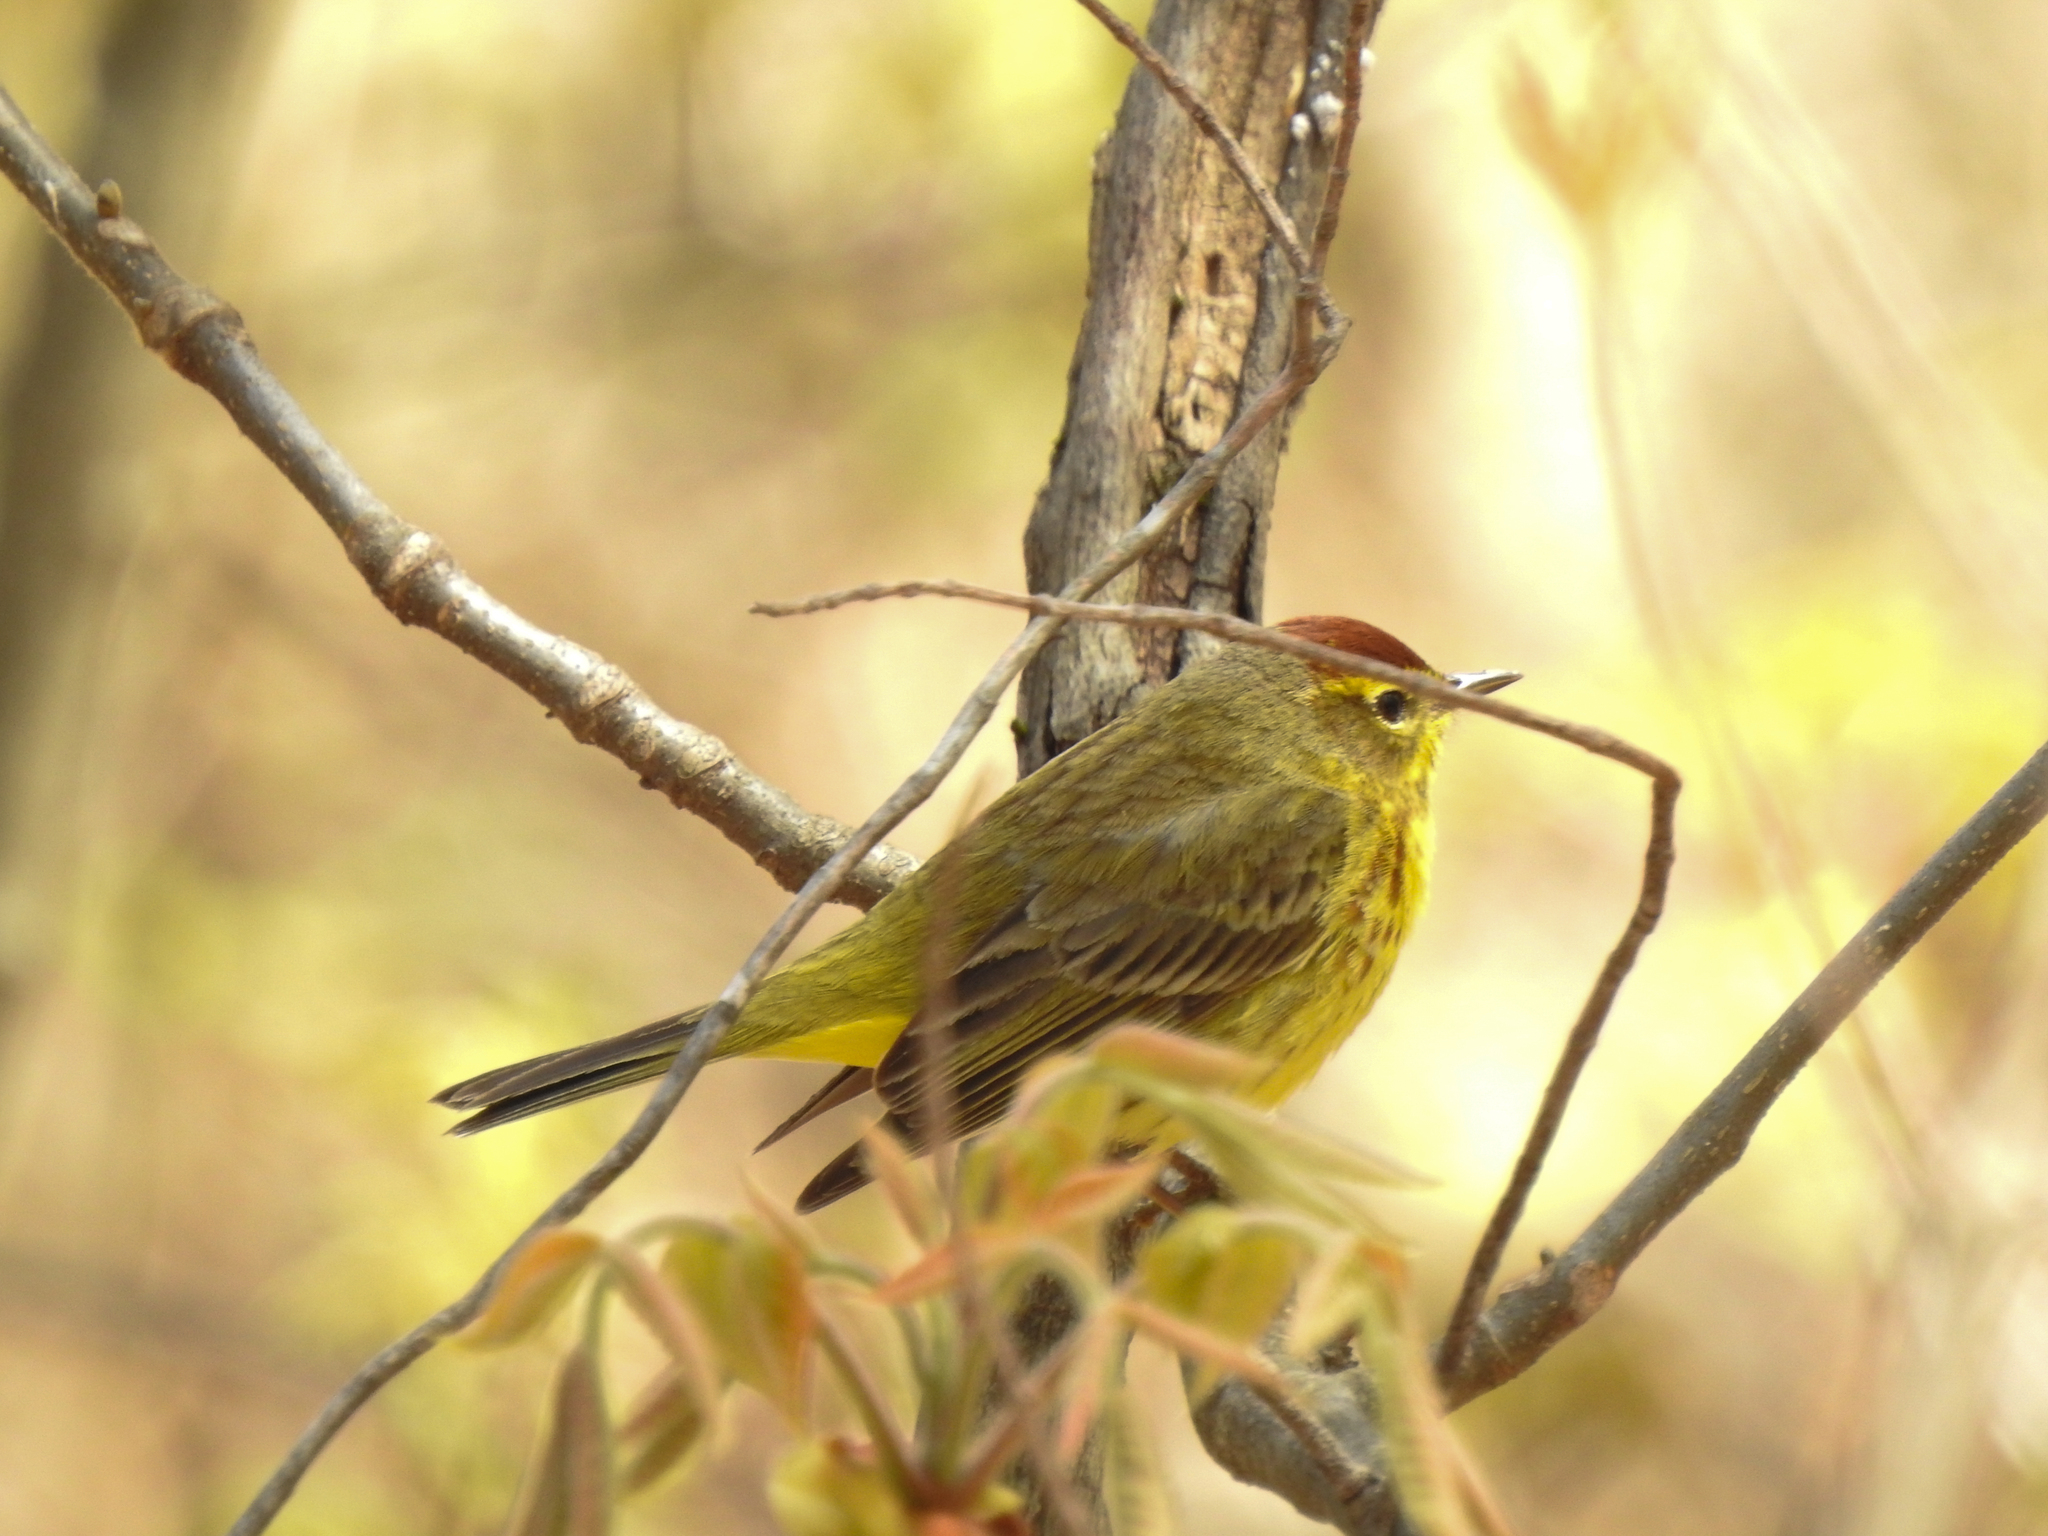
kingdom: Animalia
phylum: Chordata
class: Aves
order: Passeriformes
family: Parulidae
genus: Setophaga
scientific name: Setophaga palmarum
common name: Palm warbler
